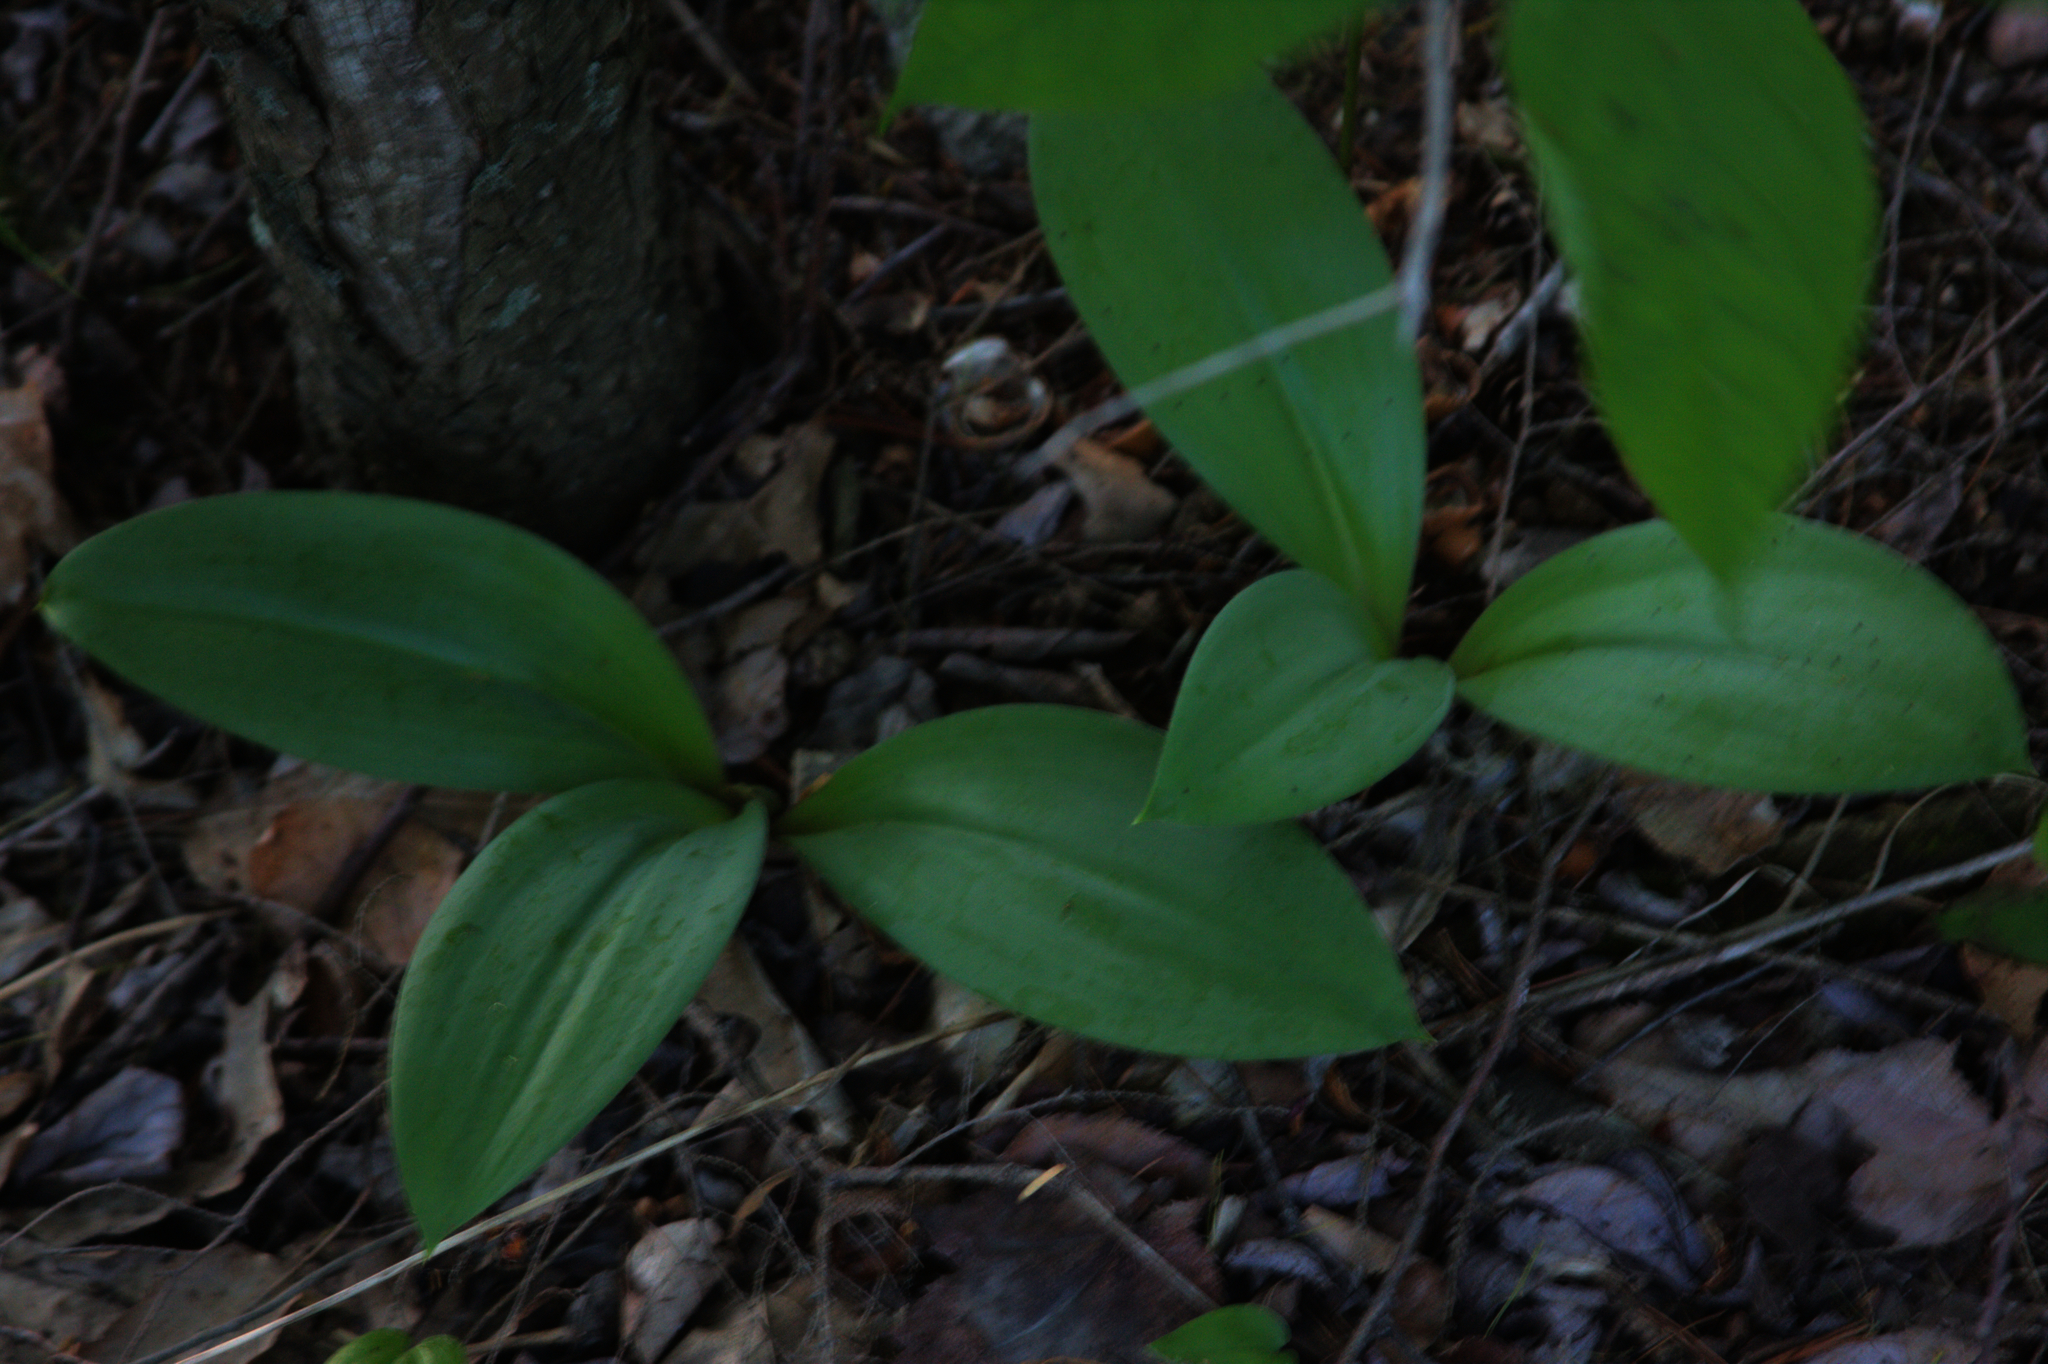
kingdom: Plantae
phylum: Tracheophyta
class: Liliopsida
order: Liliales
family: Liliaceae
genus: Clintonia
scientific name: Clintonia borealis
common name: Yellow clintonia
